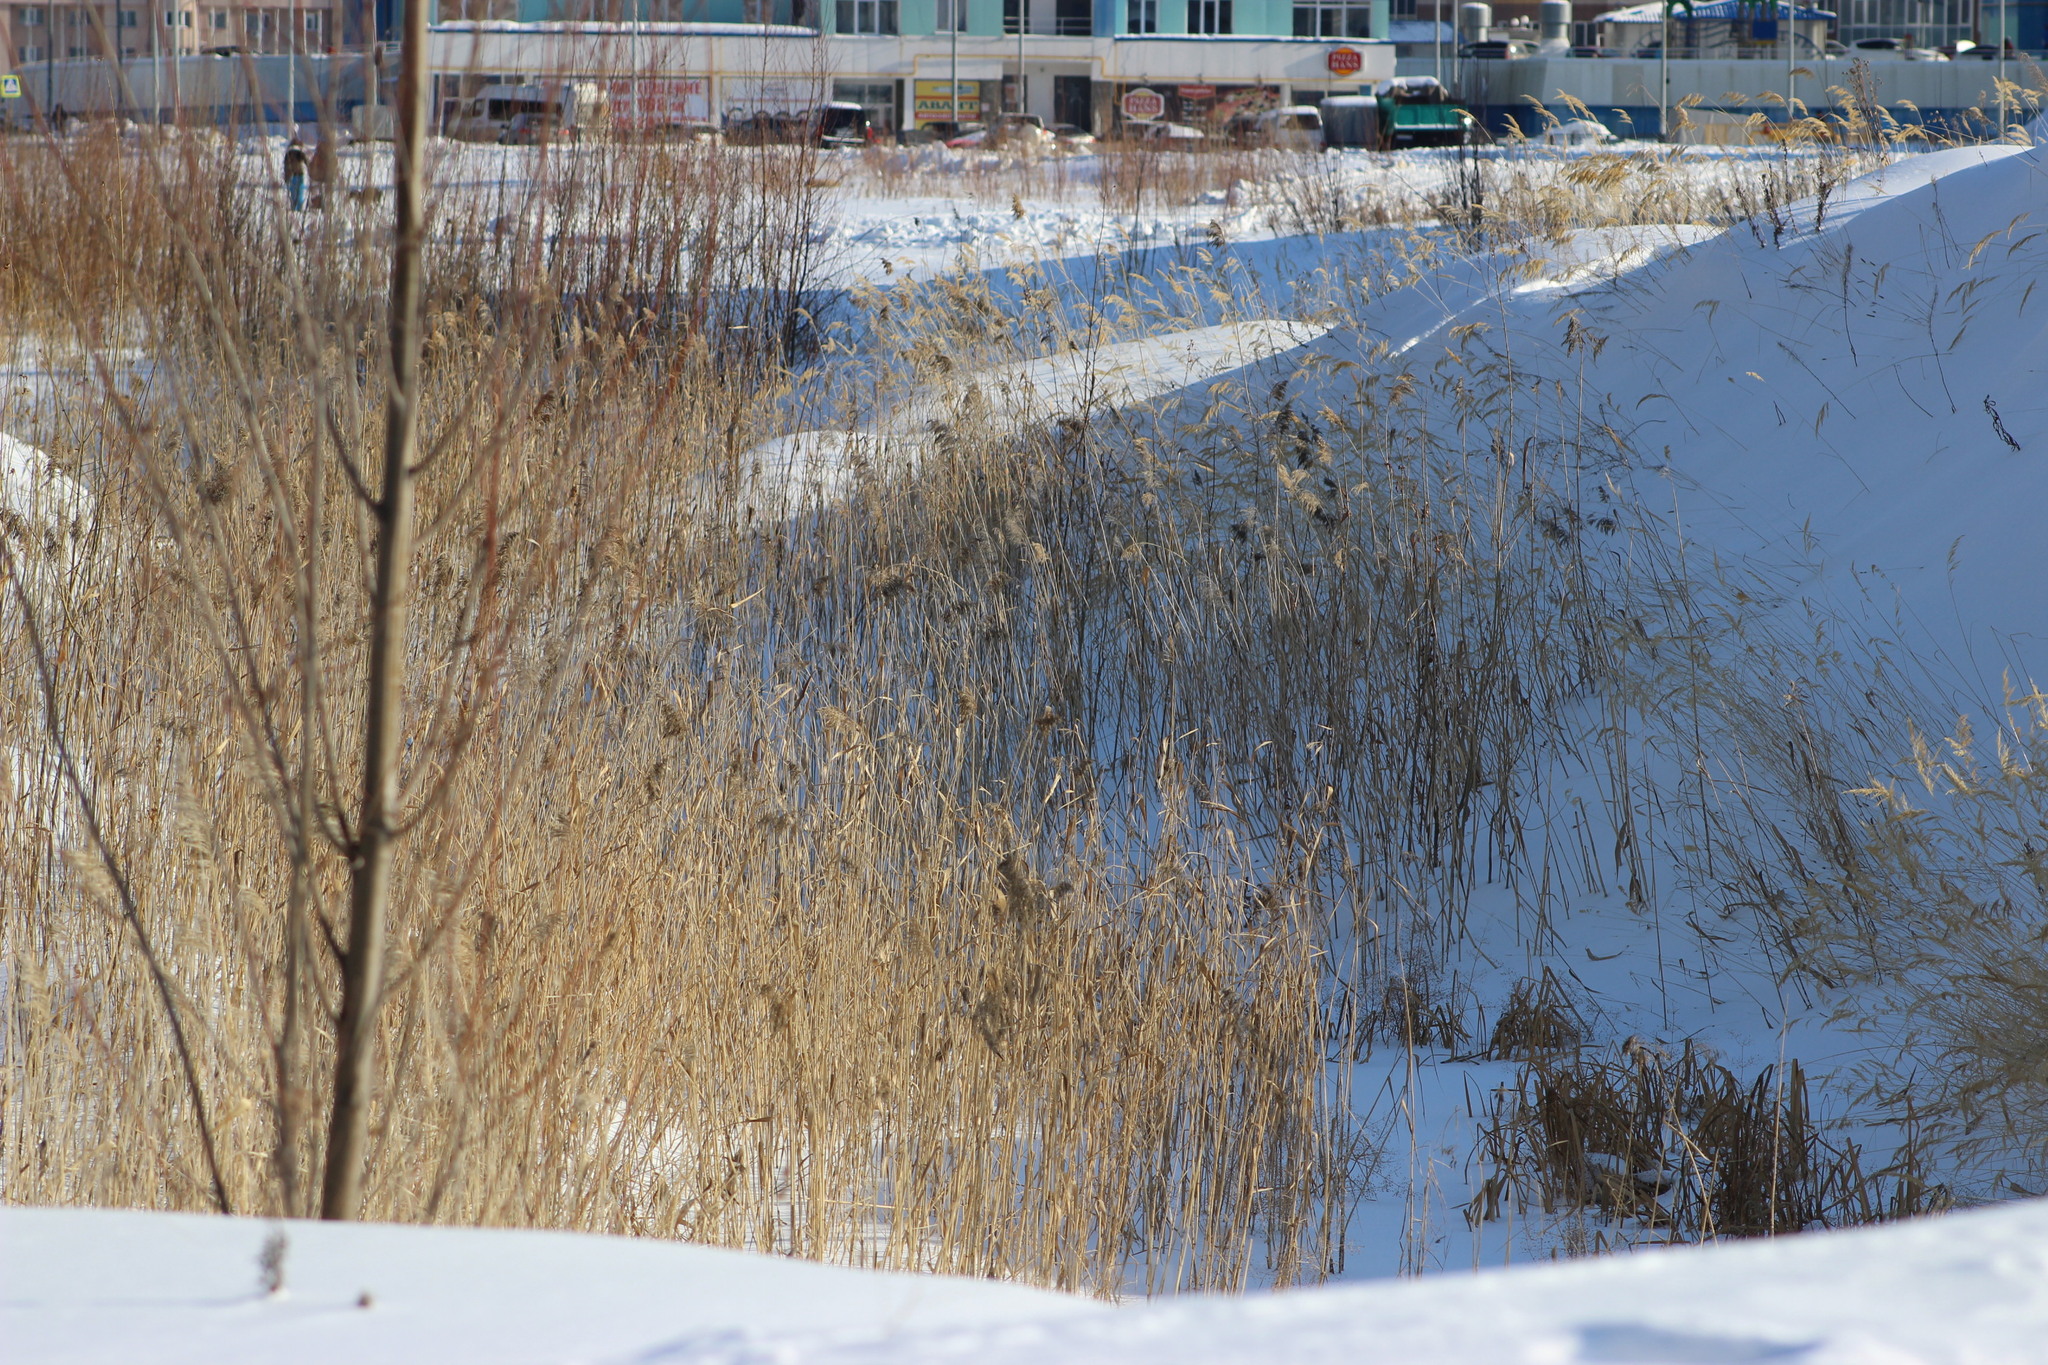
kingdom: Plantae
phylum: Tracheophyta
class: Liliopsida
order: Poales
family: Poaceae
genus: Phragmites
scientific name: Phragmites australis
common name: Common reed
